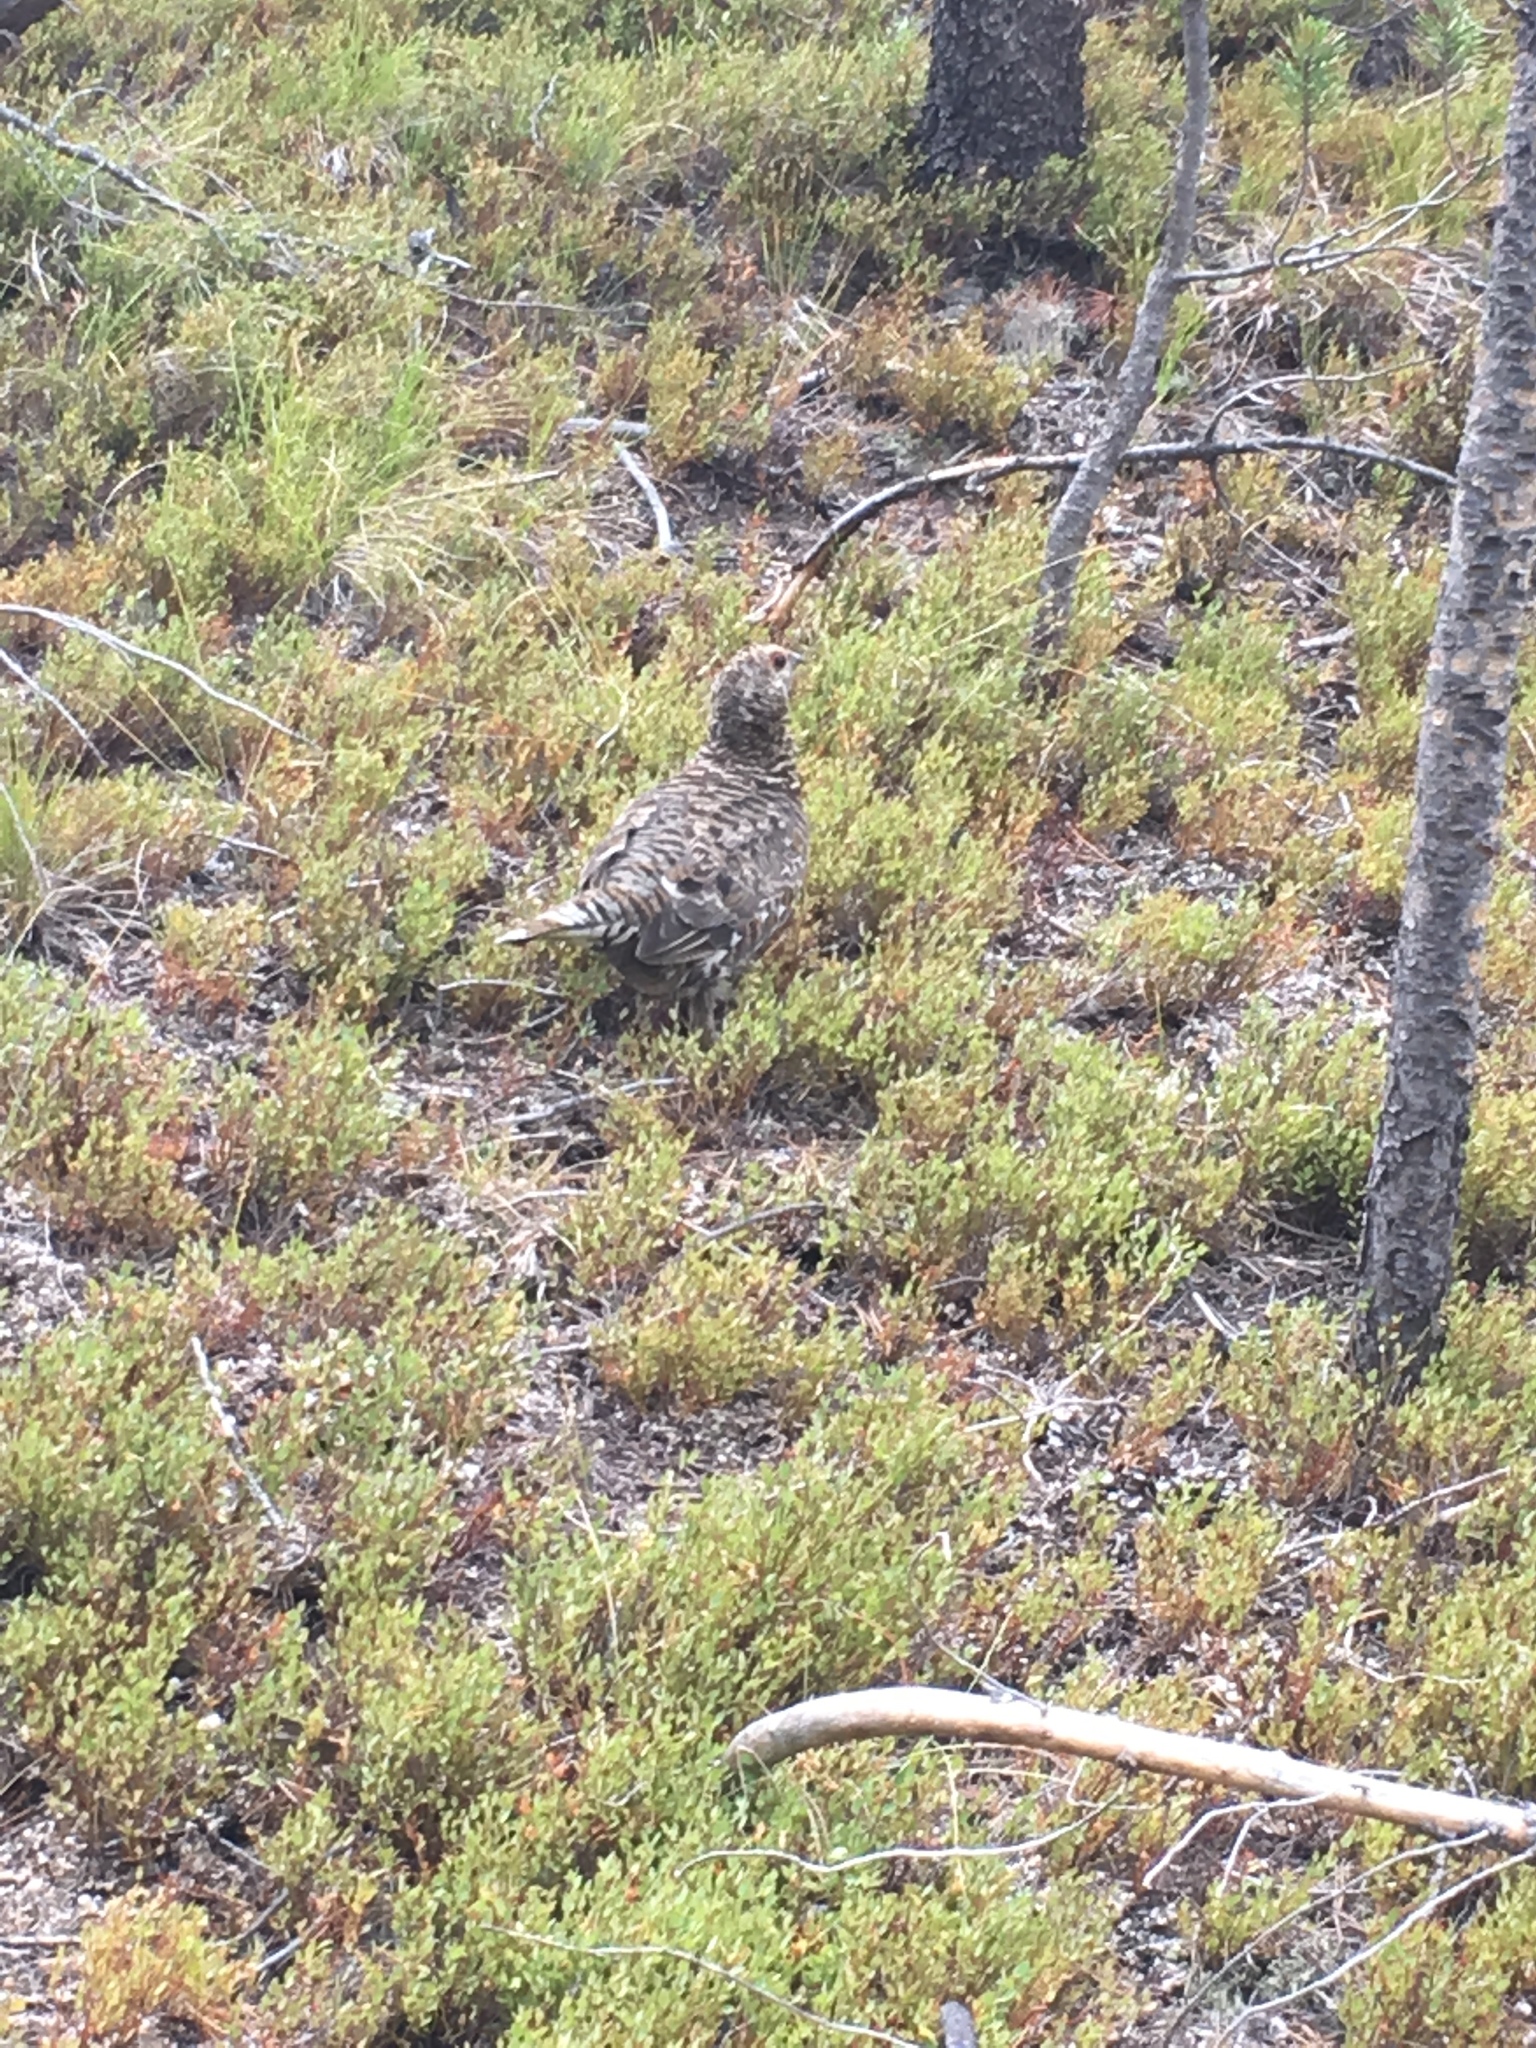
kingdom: Animalia
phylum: Chordata
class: Aves
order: Galliformes
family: Phasianidae
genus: Dendragapus
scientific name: Dendragapus obscurus
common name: Dusky grouse
